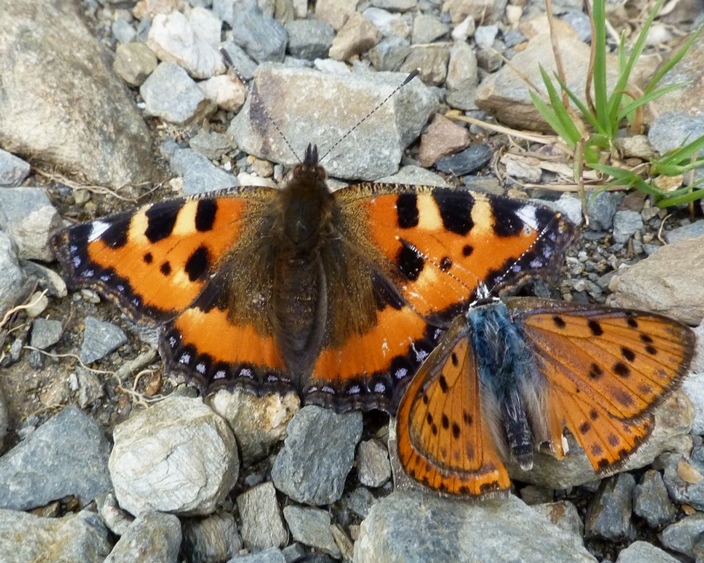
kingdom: Animalia
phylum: Arthropoda
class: Insecta
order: Lepidoptera
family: Nymphalidae
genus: Aglais
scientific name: Aglais urticae
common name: Small tortoiseshell
